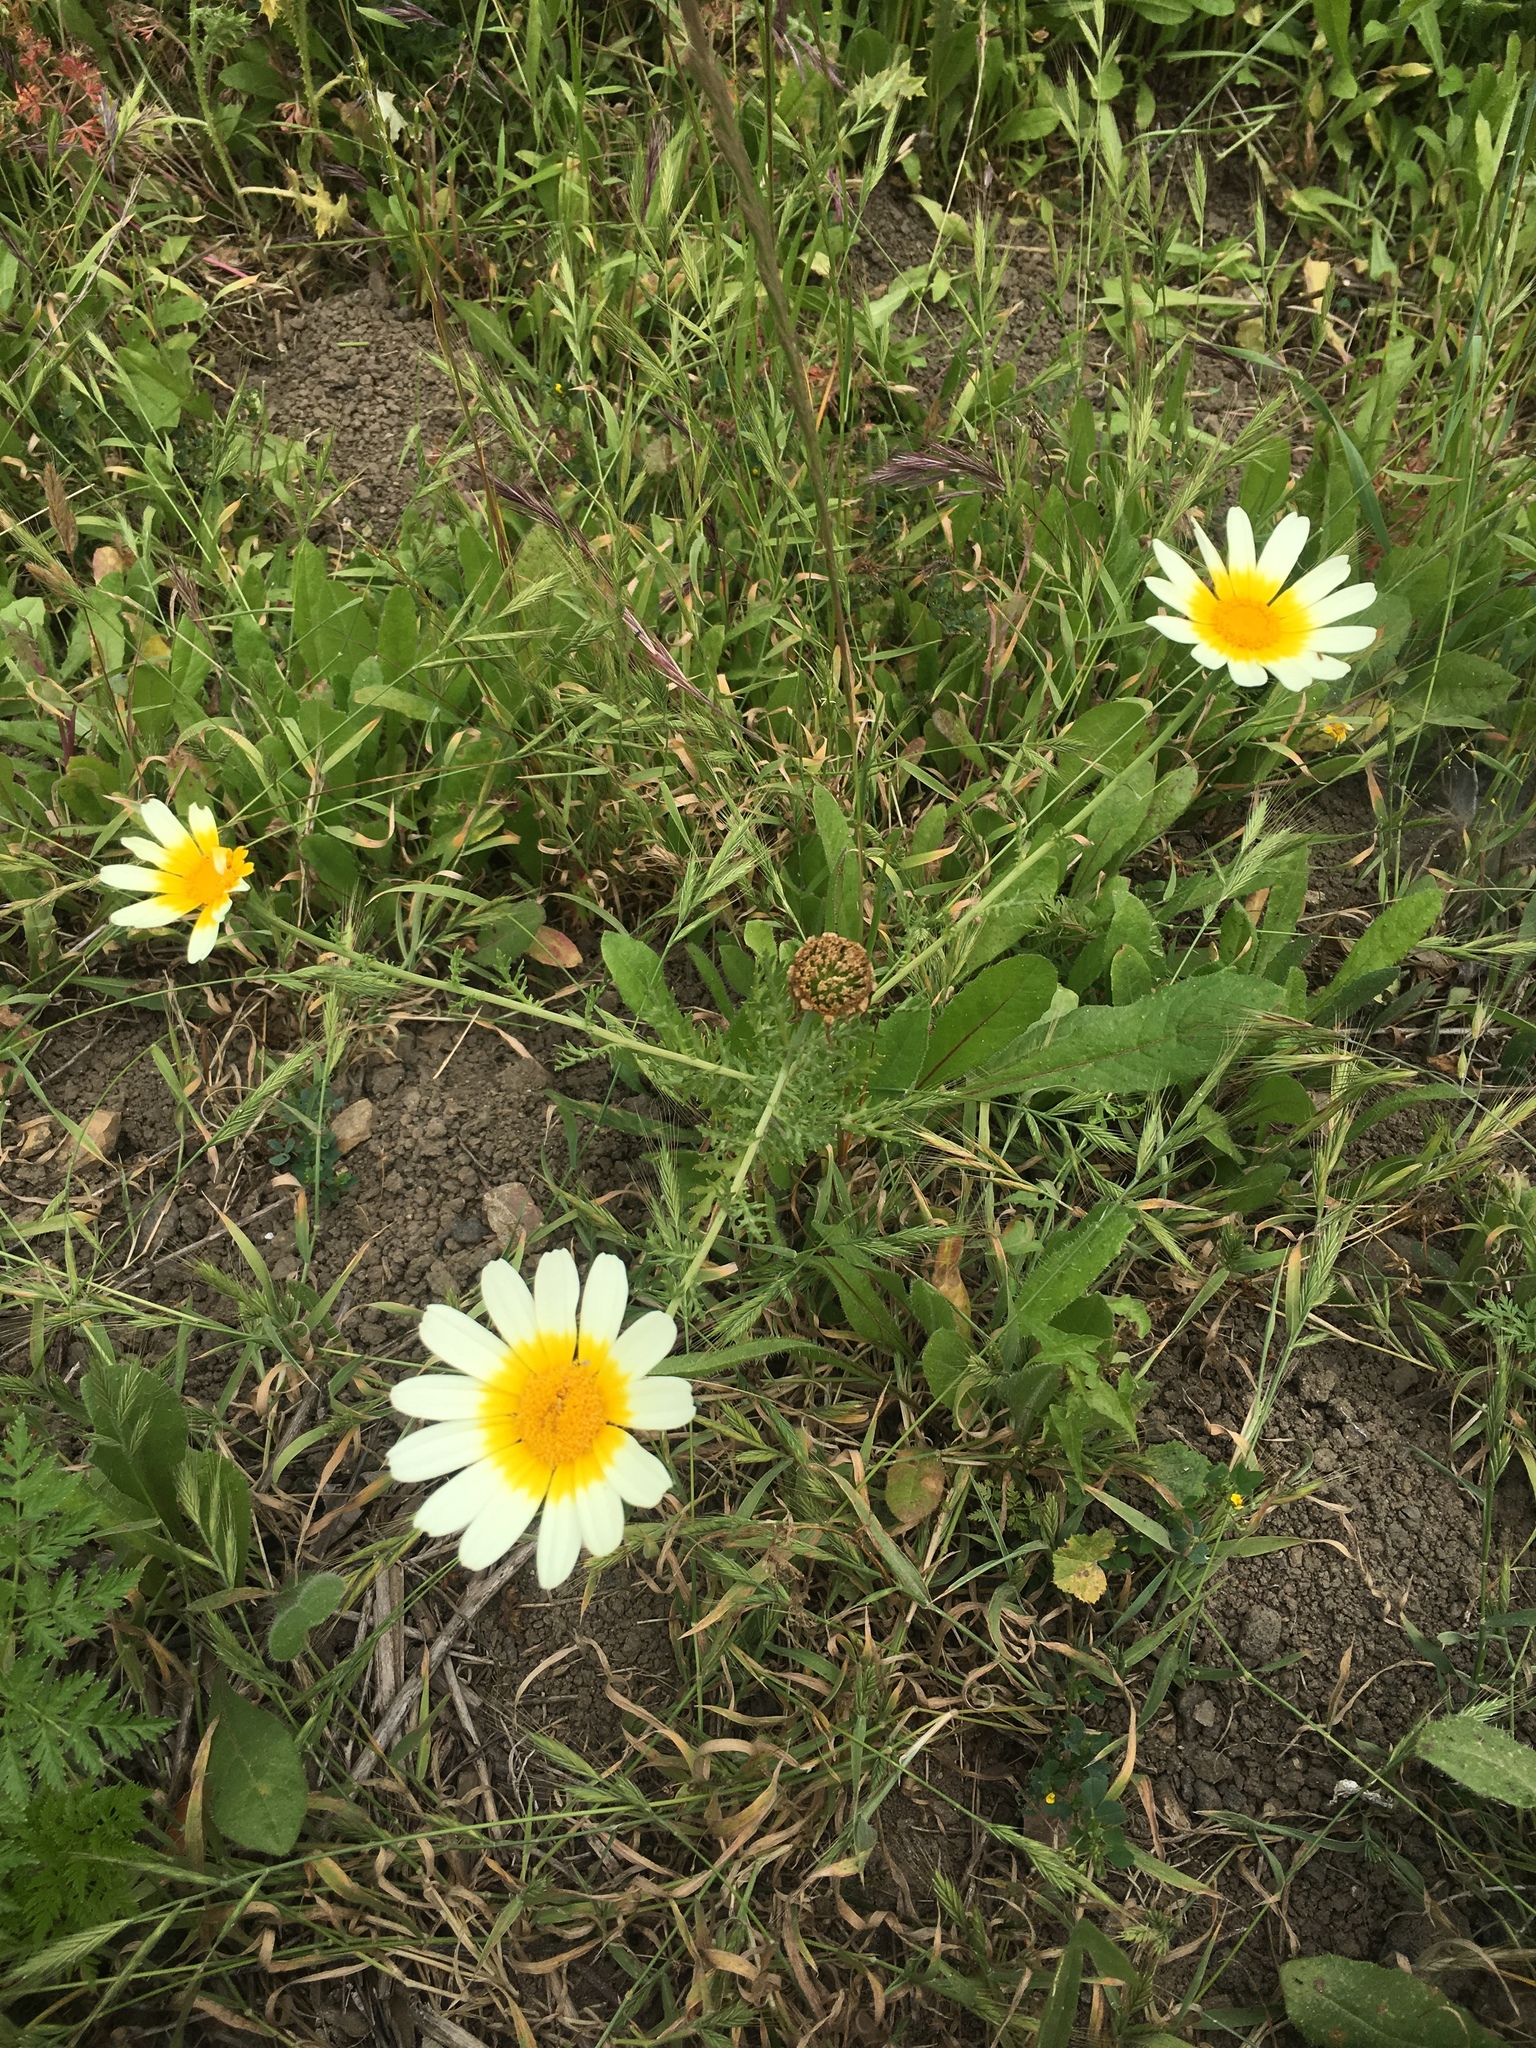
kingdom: Plantae
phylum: Tracheophyta
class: Magnoliopsida
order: Asterales
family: Asteraceae
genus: Glebionis
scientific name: Glebionis coronaria
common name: Crowndaisy
